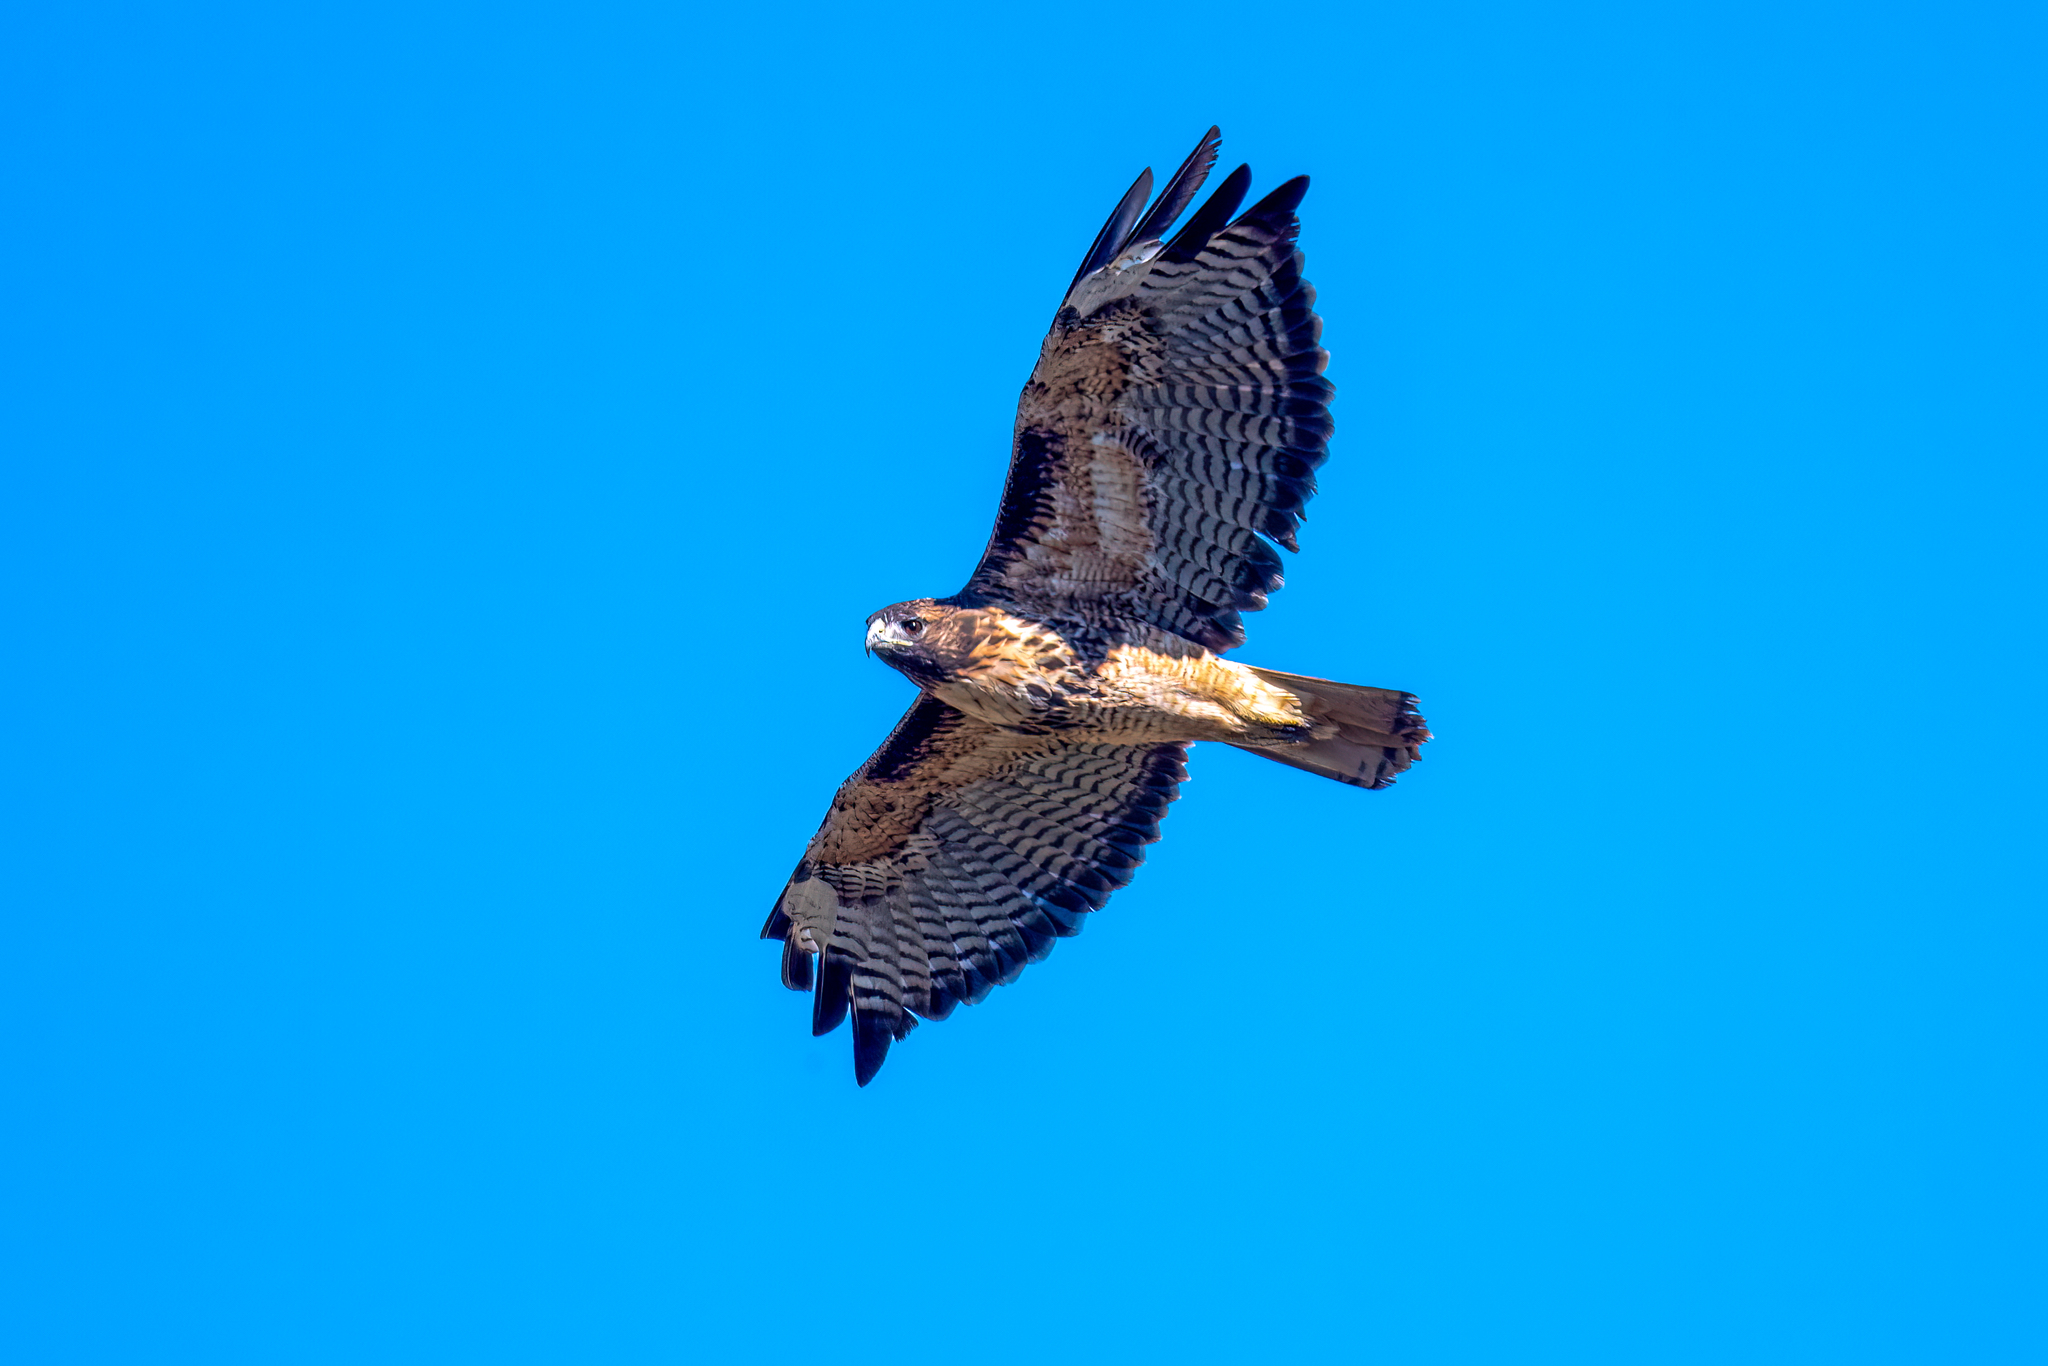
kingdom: Animalia
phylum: Chordata
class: Aves
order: Accipitriformes
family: Accipitridae
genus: Buteo
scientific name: Buteo jamaicensis
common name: Red-tailed hawk
